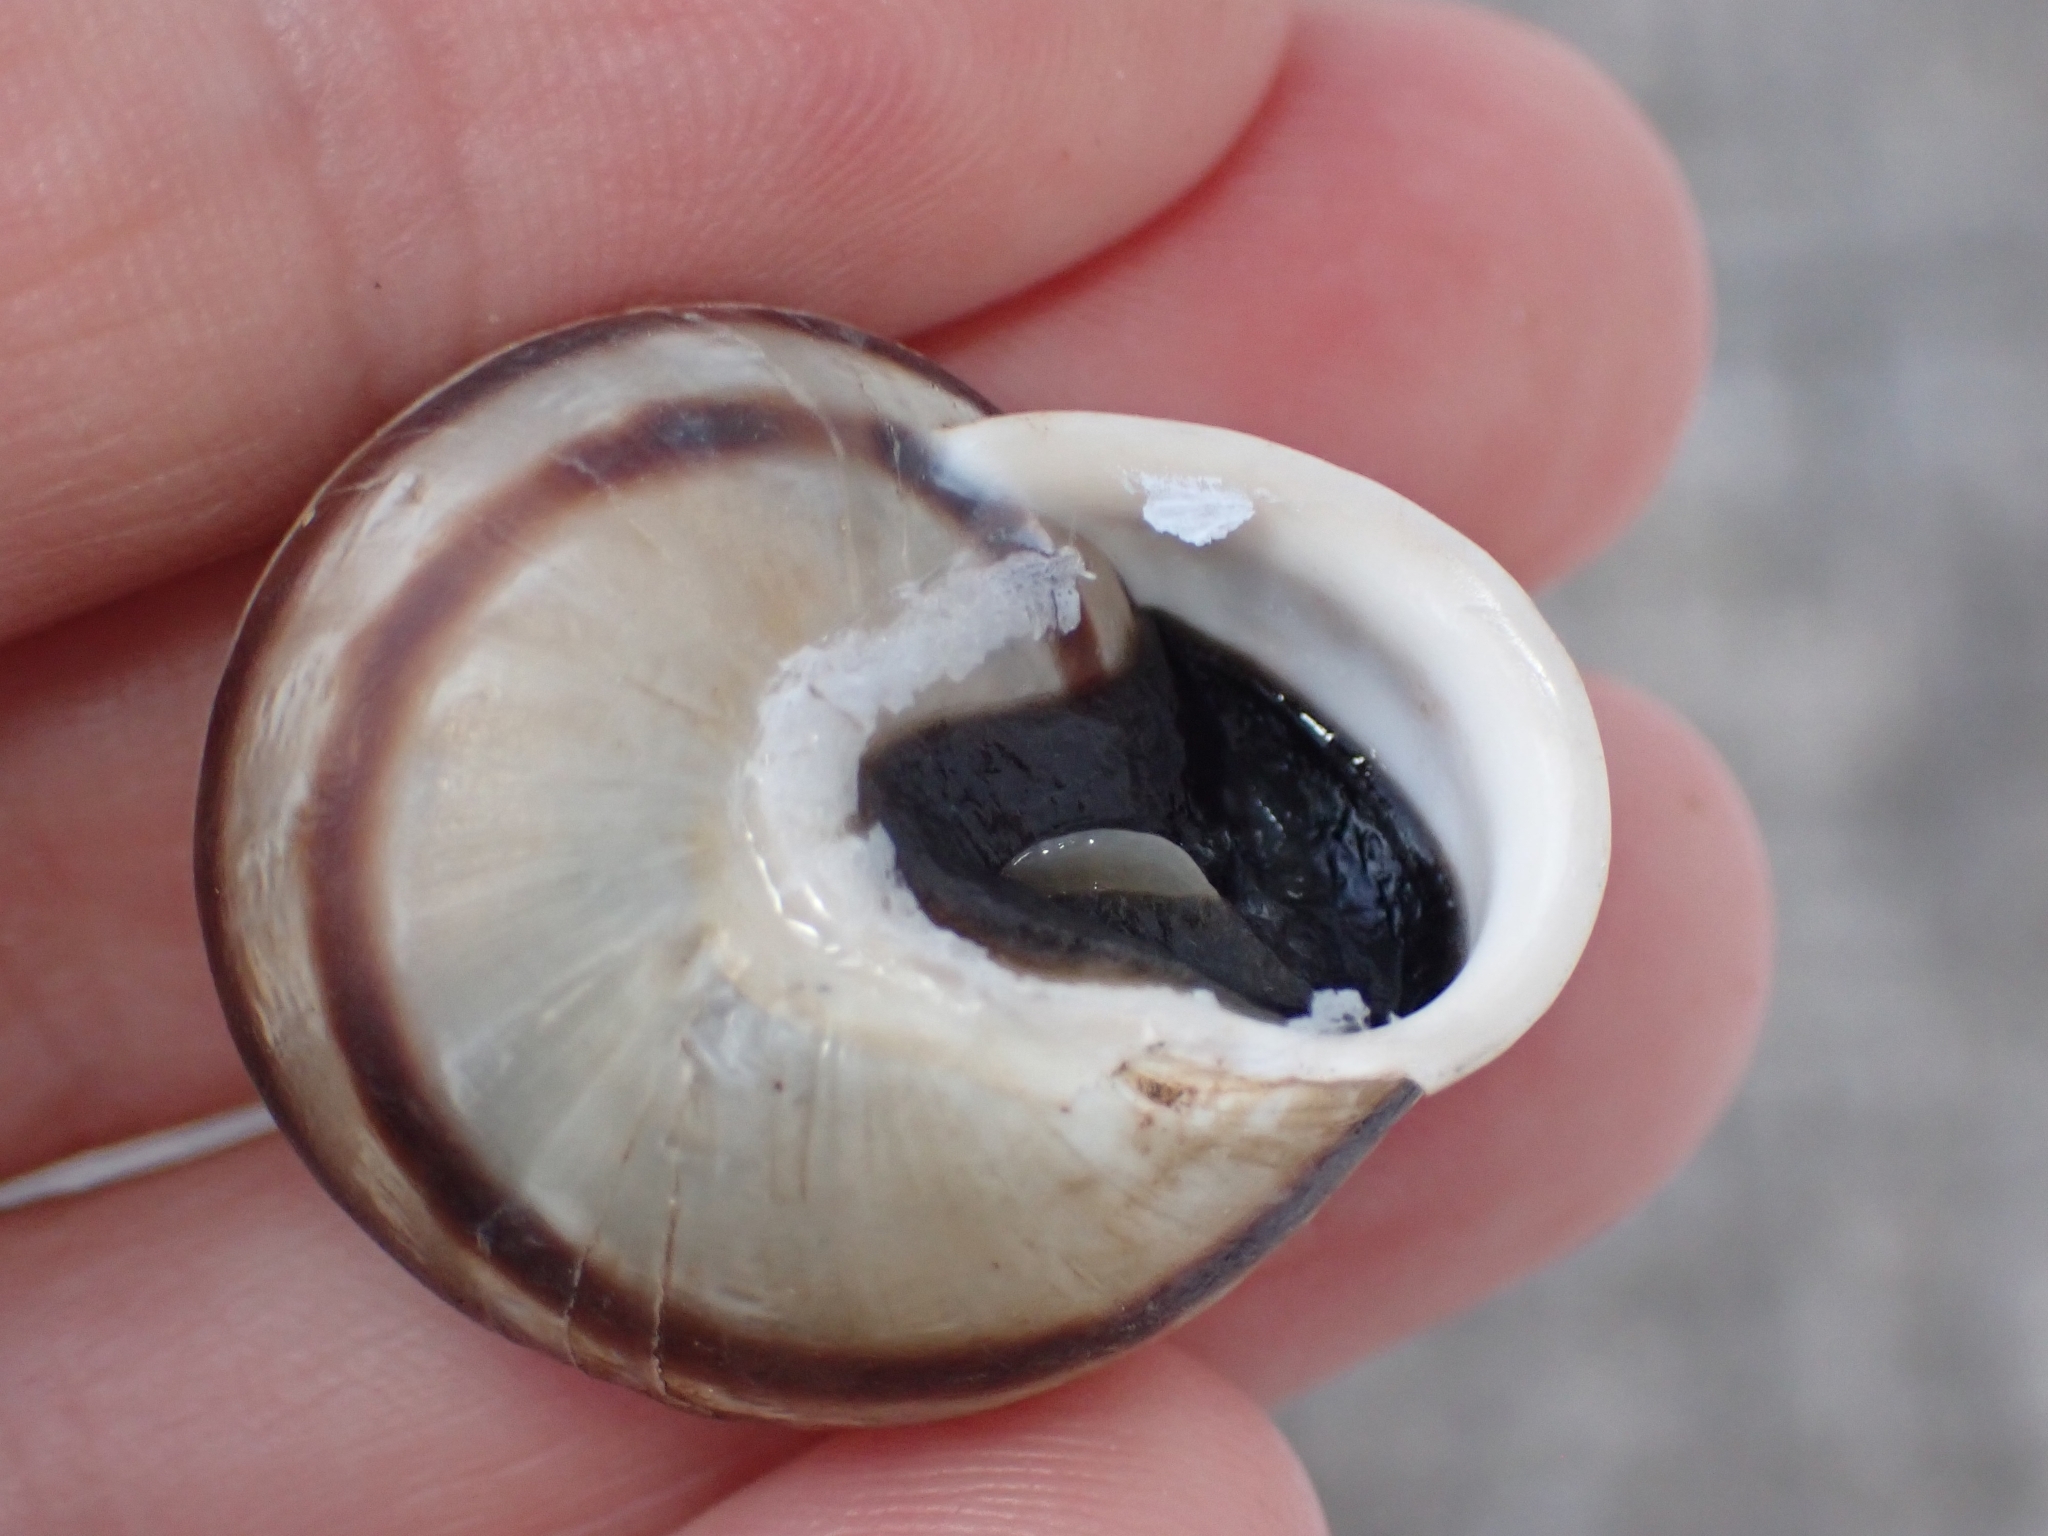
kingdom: Animalia
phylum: Mollusca
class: Gastropoda
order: Stylommatophora
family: Helicidae
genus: Eobania
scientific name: Eobania vermiculata
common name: Chocolateband snail
